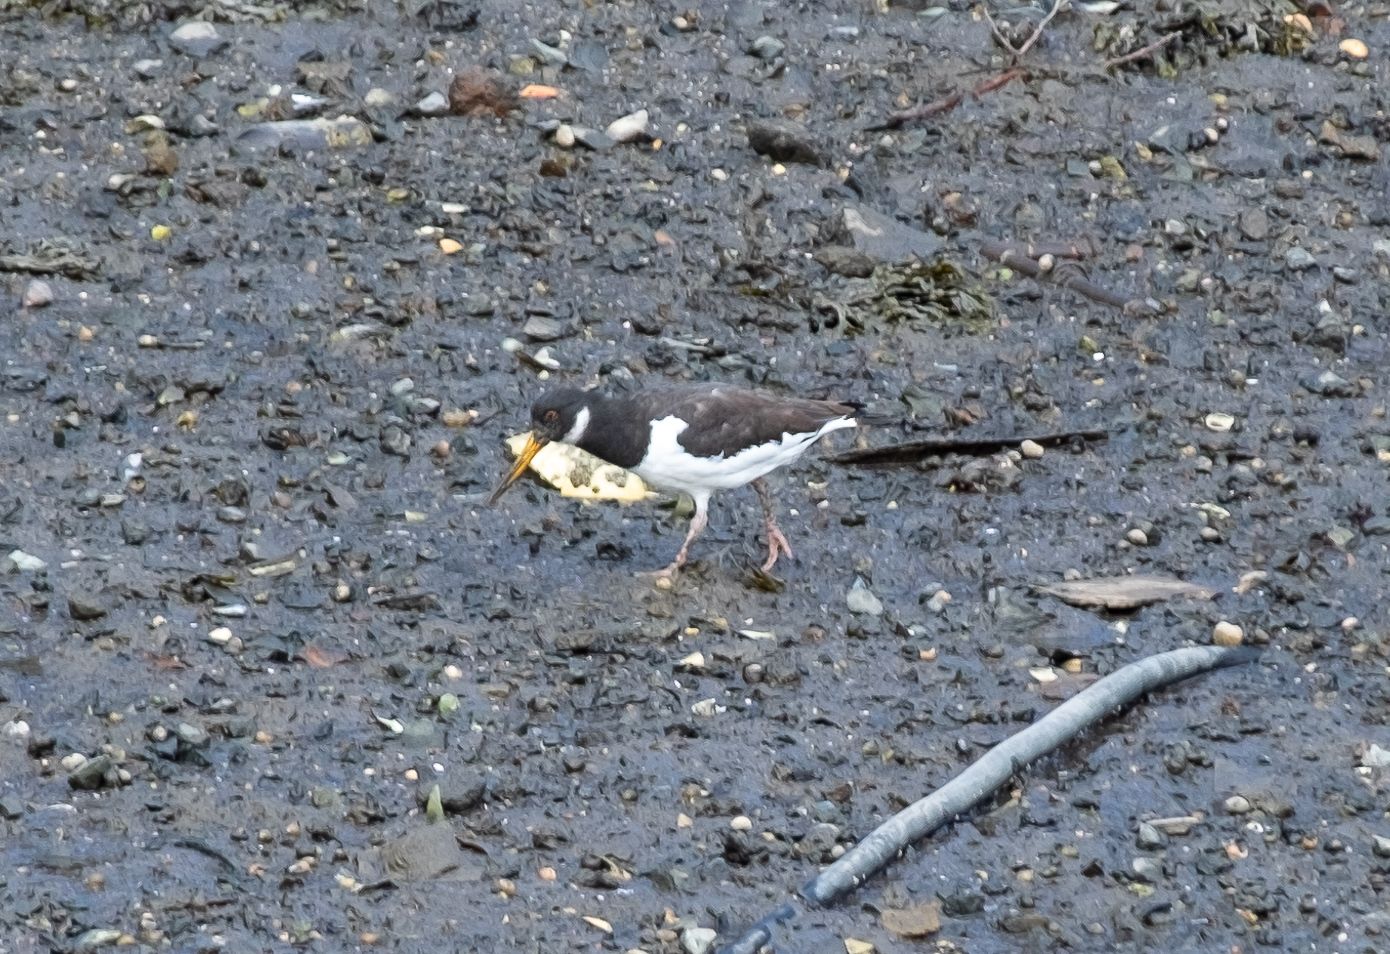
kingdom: Animalia
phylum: Chordata
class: Aves
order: Charadriiformes
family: Haematopodidae
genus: Haematopus
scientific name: Haematopus ostralegus
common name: Eurasian oystercatcher
